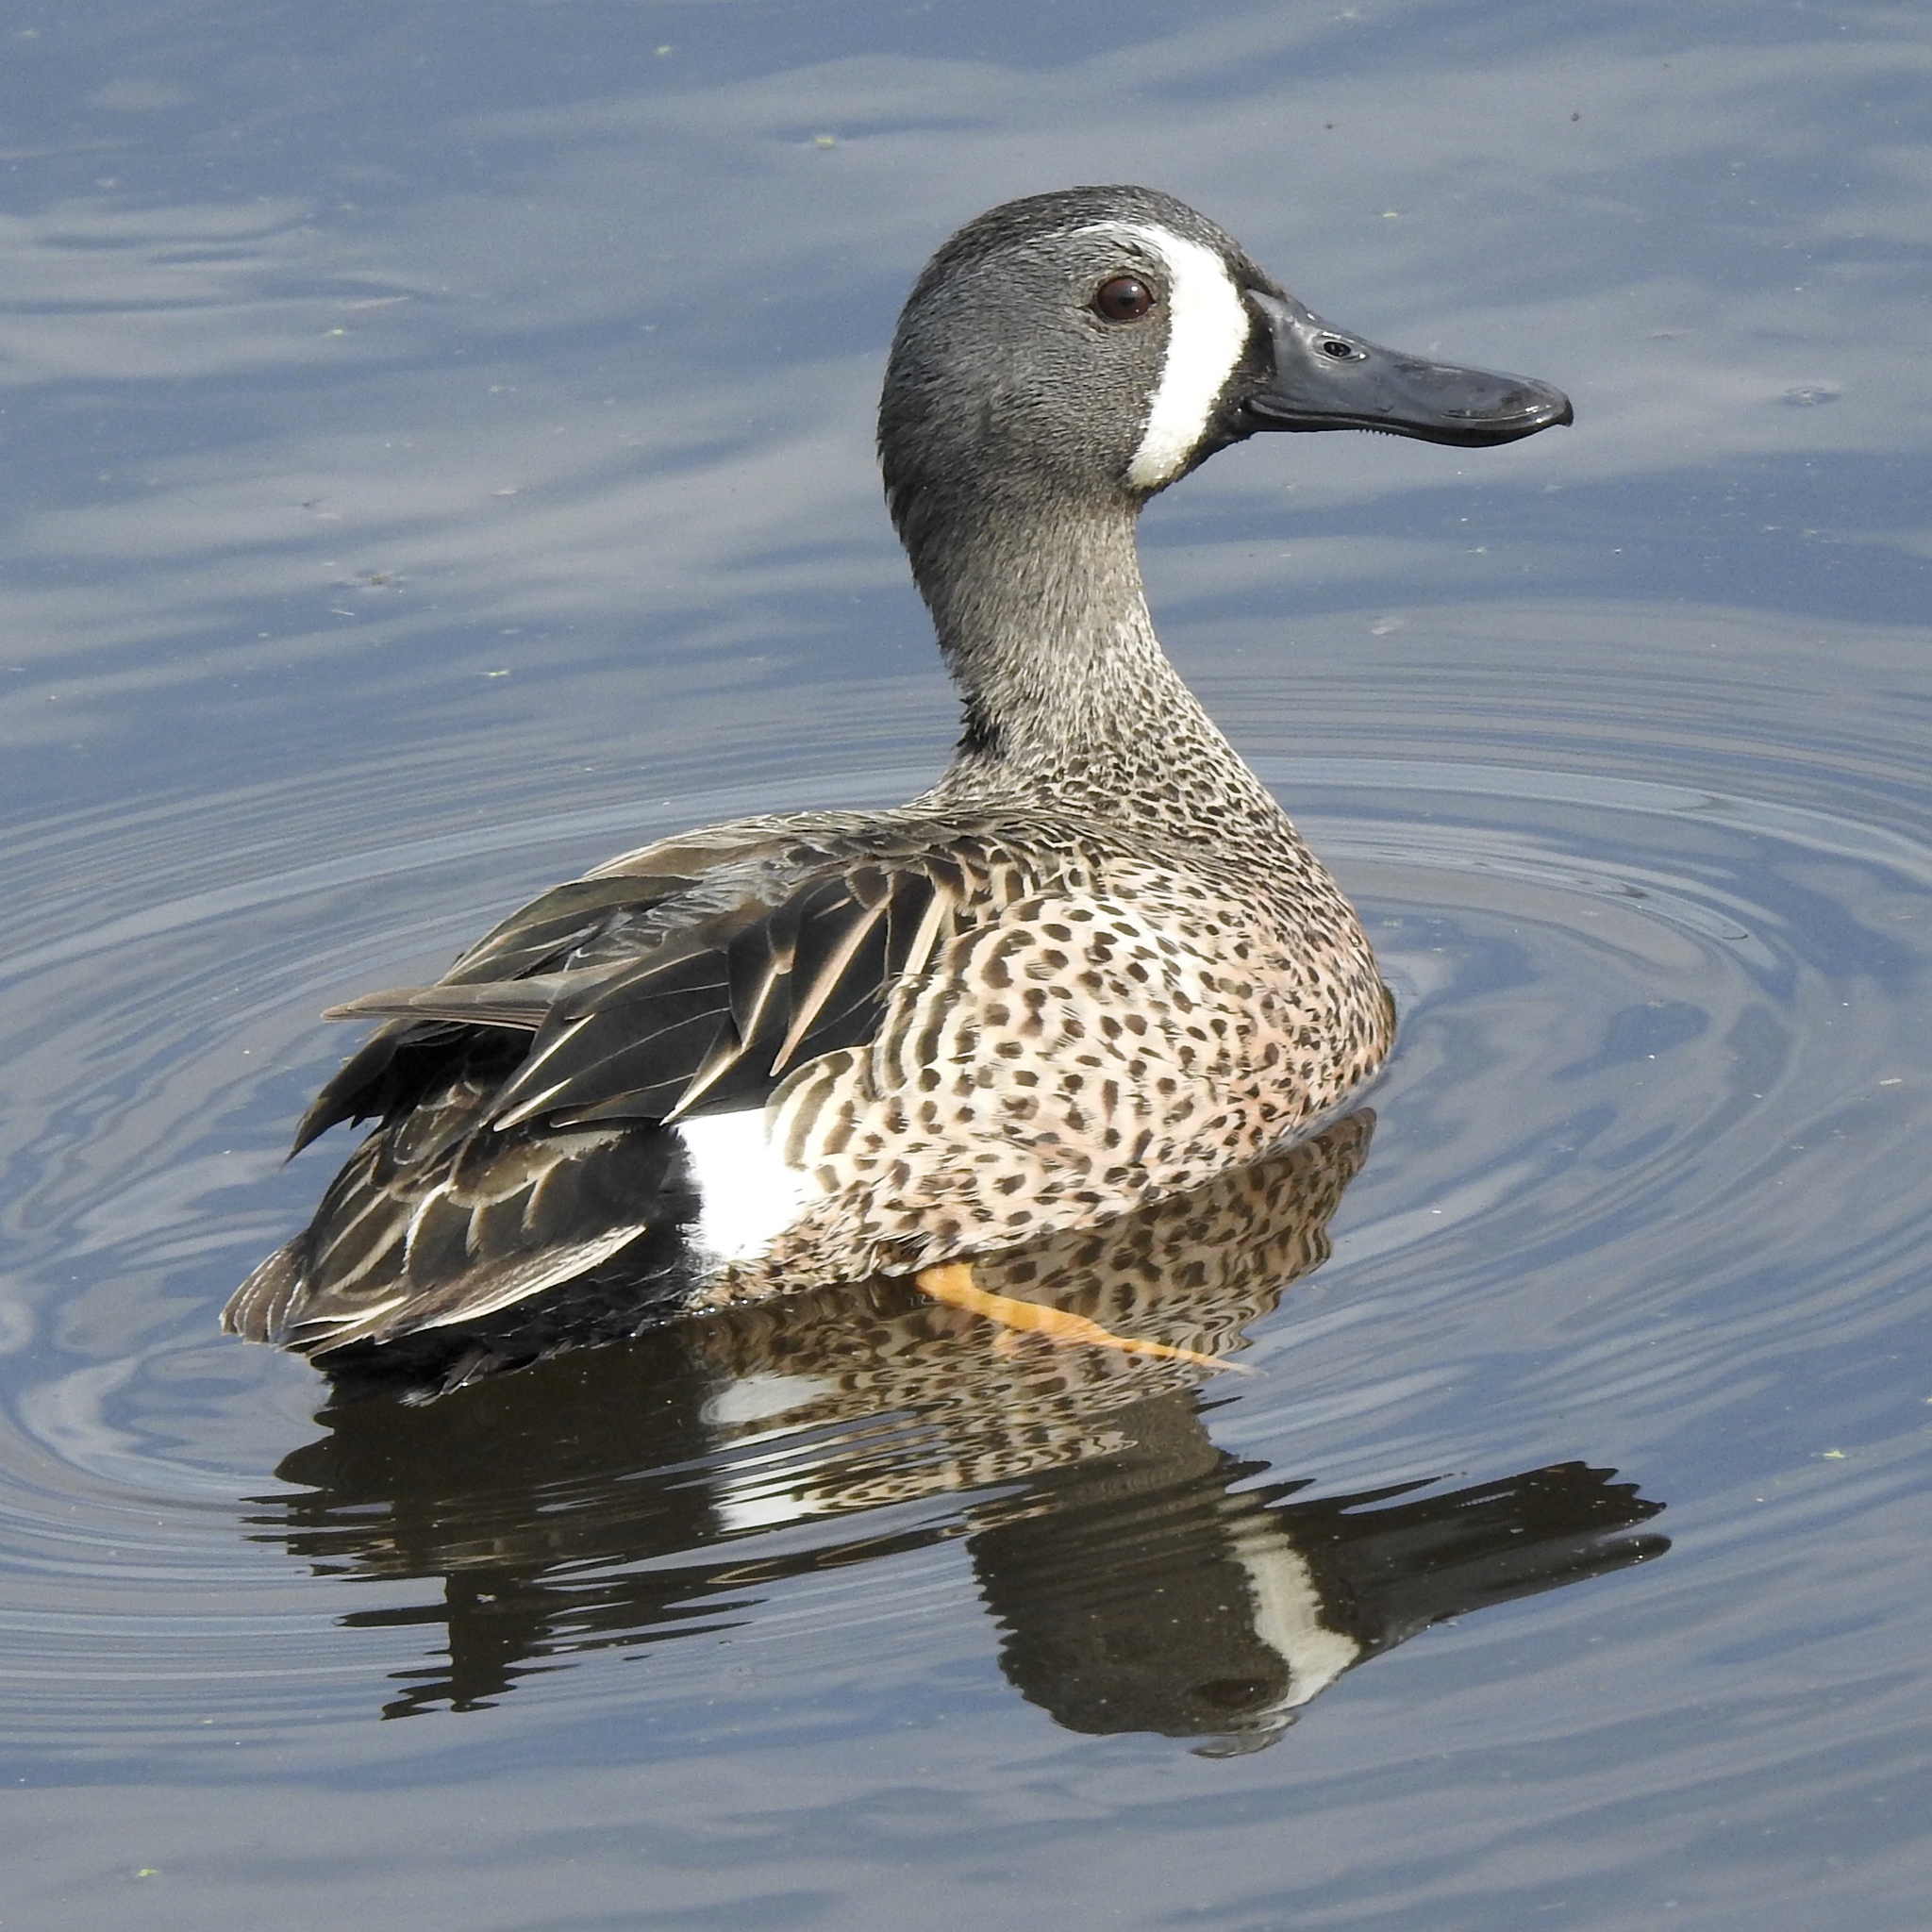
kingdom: Animalia
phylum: Chordata
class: Aves
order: Anseriformes
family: Anatidae
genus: Spatula
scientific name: Spatula discors
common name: Blue-winged teal
